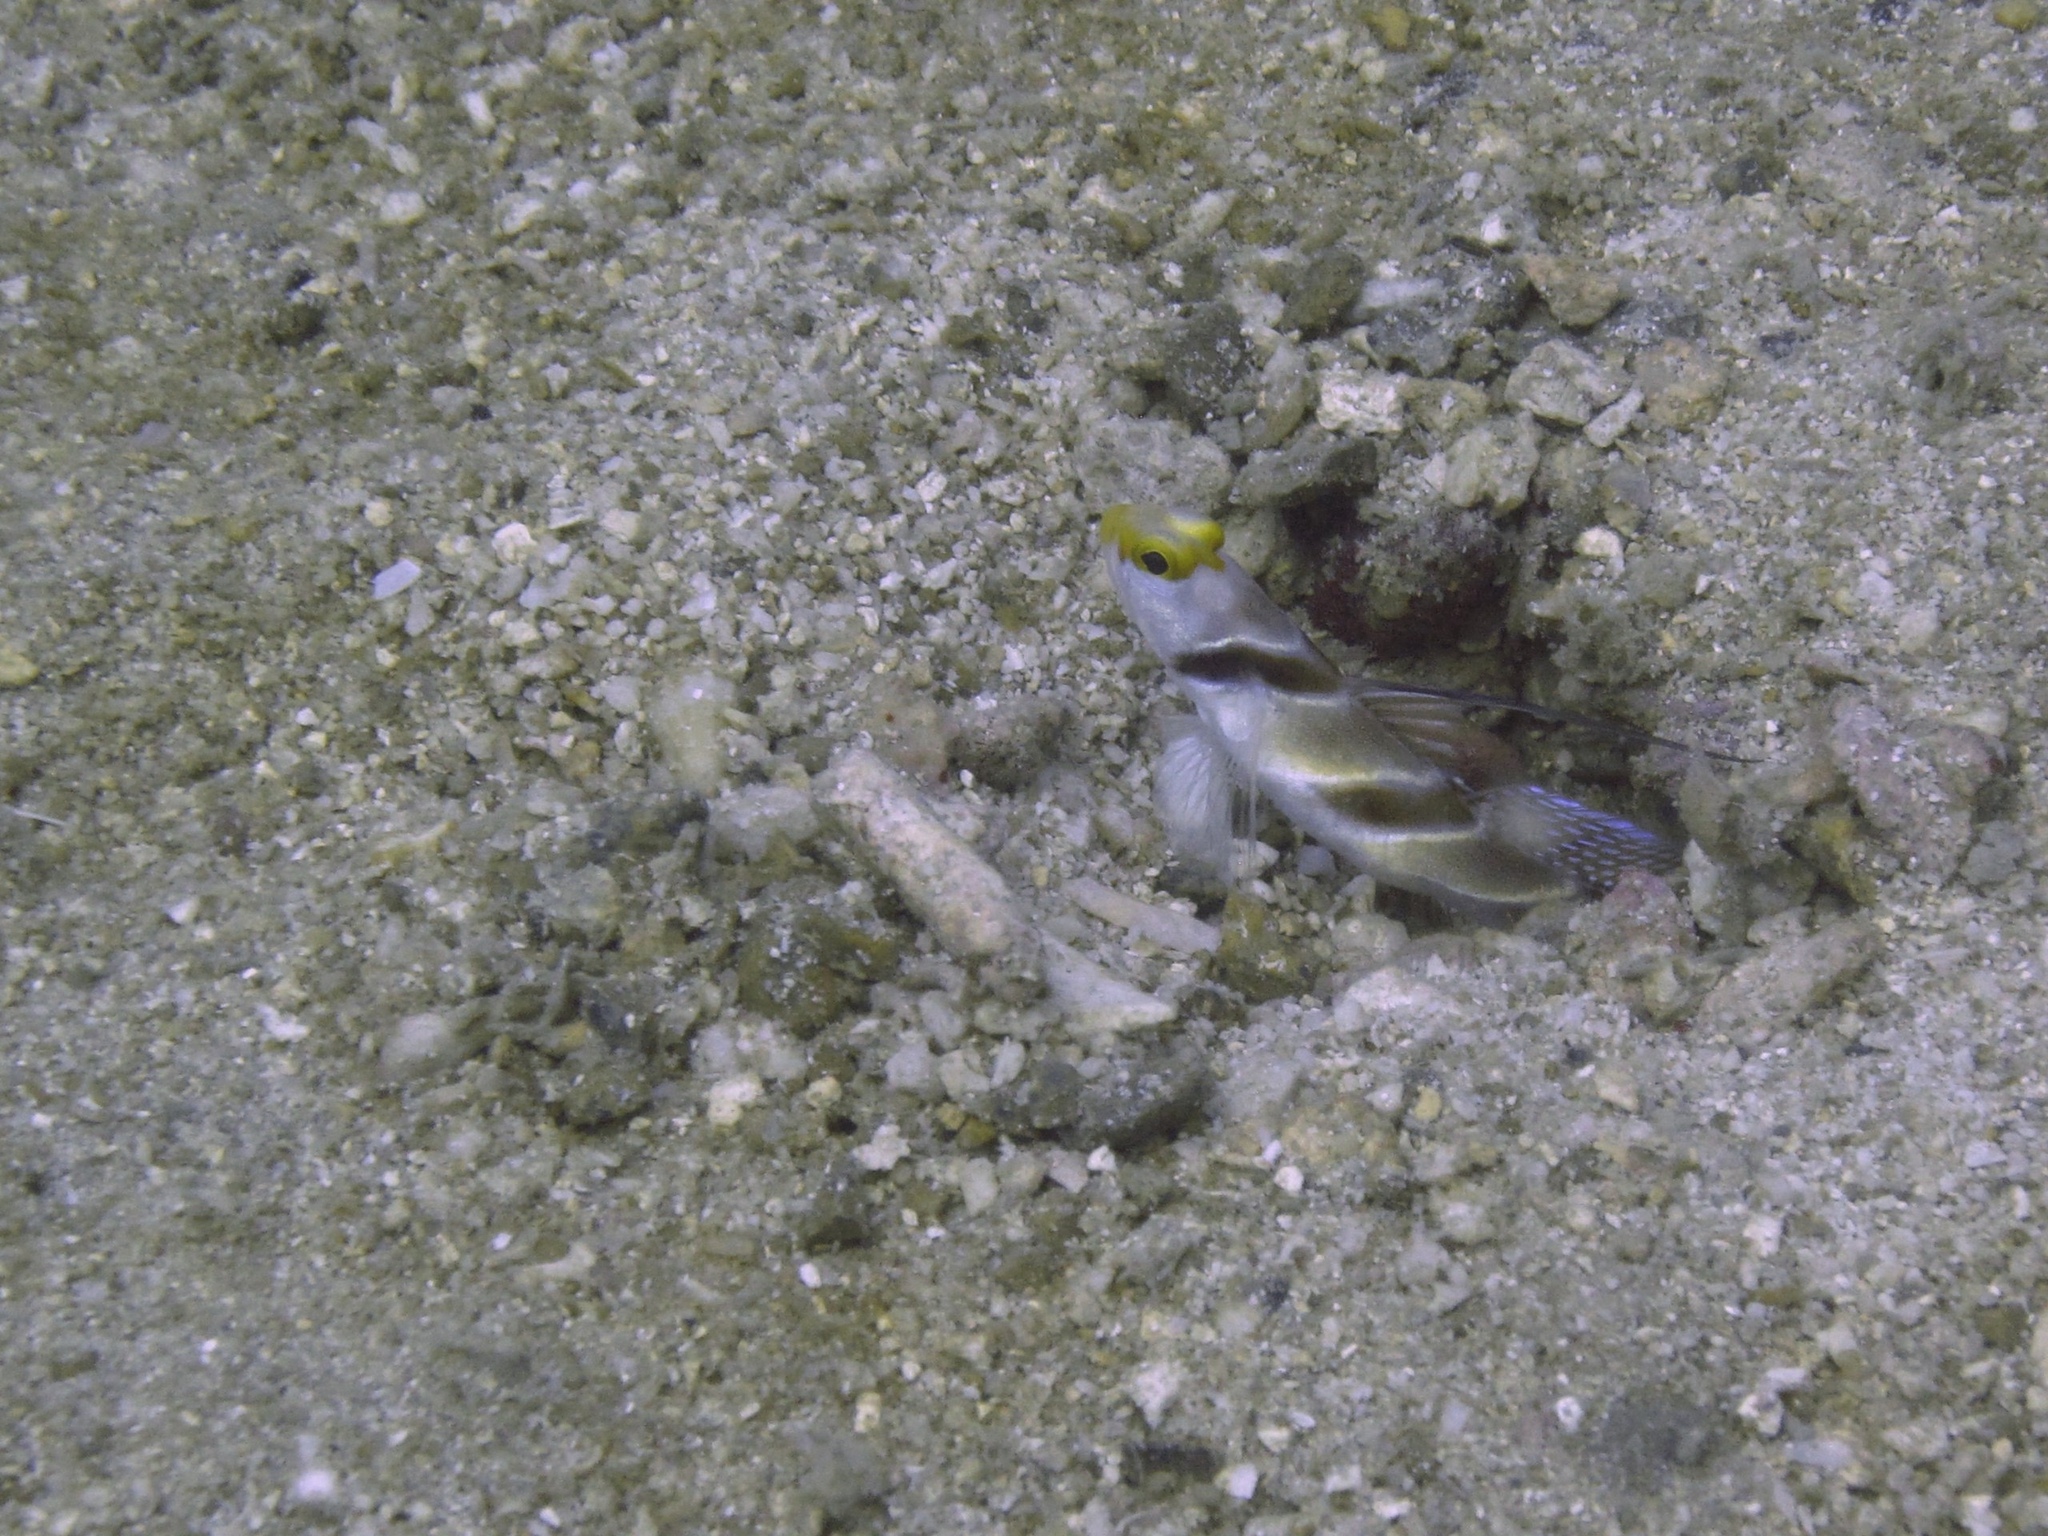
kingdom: Animalia
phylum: Chordata
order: Perciformes
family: Gobiidae
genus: Stonogobiops
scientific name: Stonogobiops nematodes
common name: Black-rayed shrimp-goby
